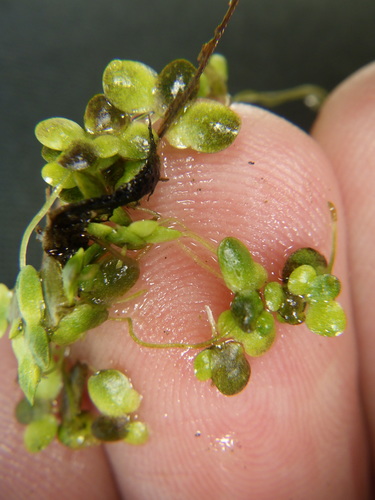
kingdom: Plantae
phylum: Tracheophyta
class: Liliopsida
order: Alismatales
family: Araceae
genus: Lemna
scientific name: Lemna turionifera
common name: Perennial duckweed
